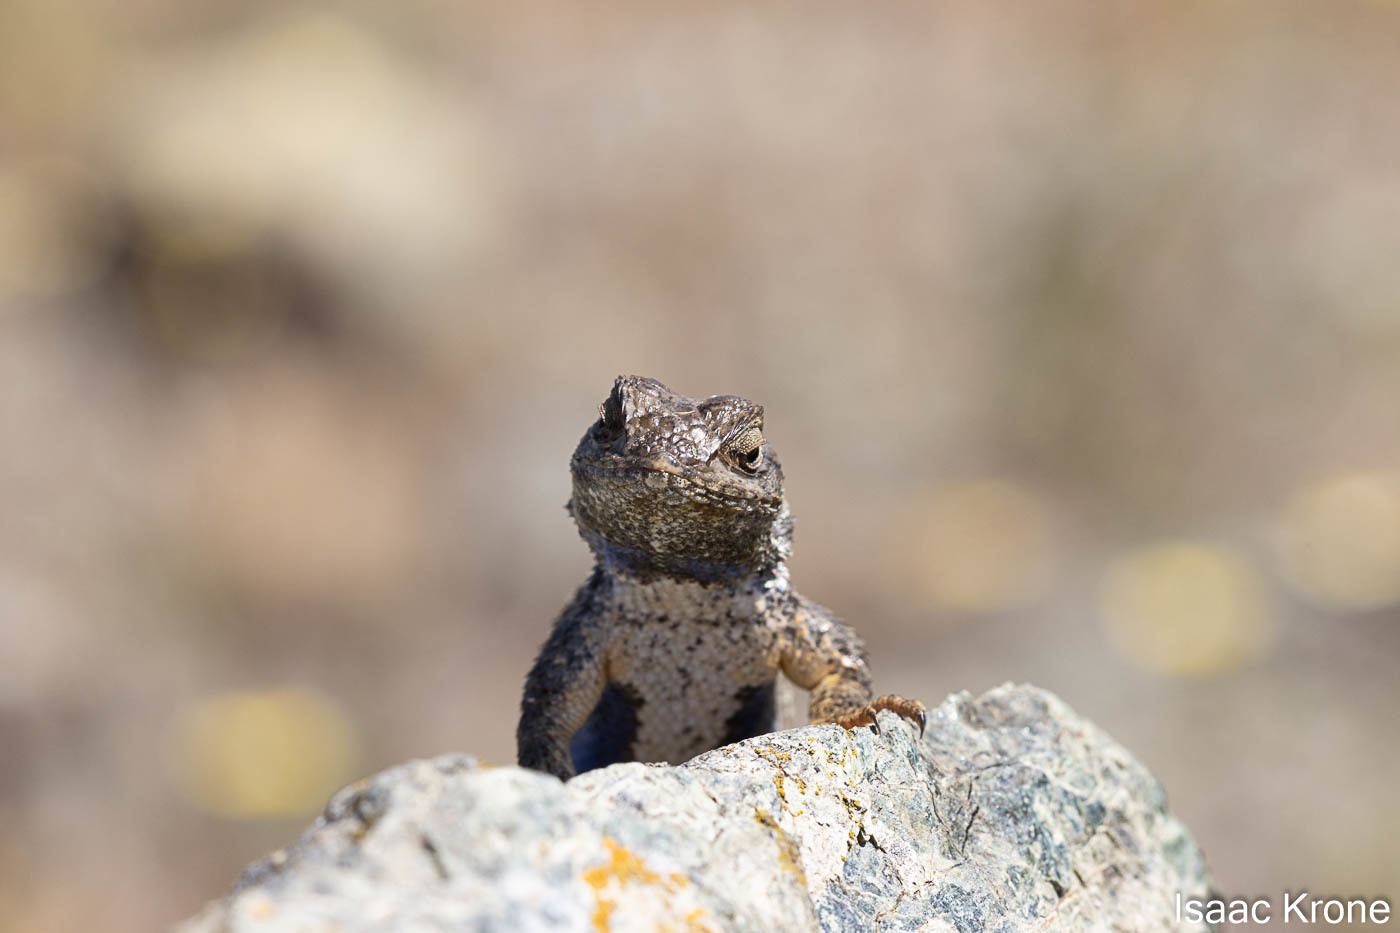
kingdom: Animalia
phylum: Chordata
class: Squamata
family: Phrynosomatidae
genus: Sceloporus
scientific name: Sceloporus occidentalis
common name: Western fence lizard
